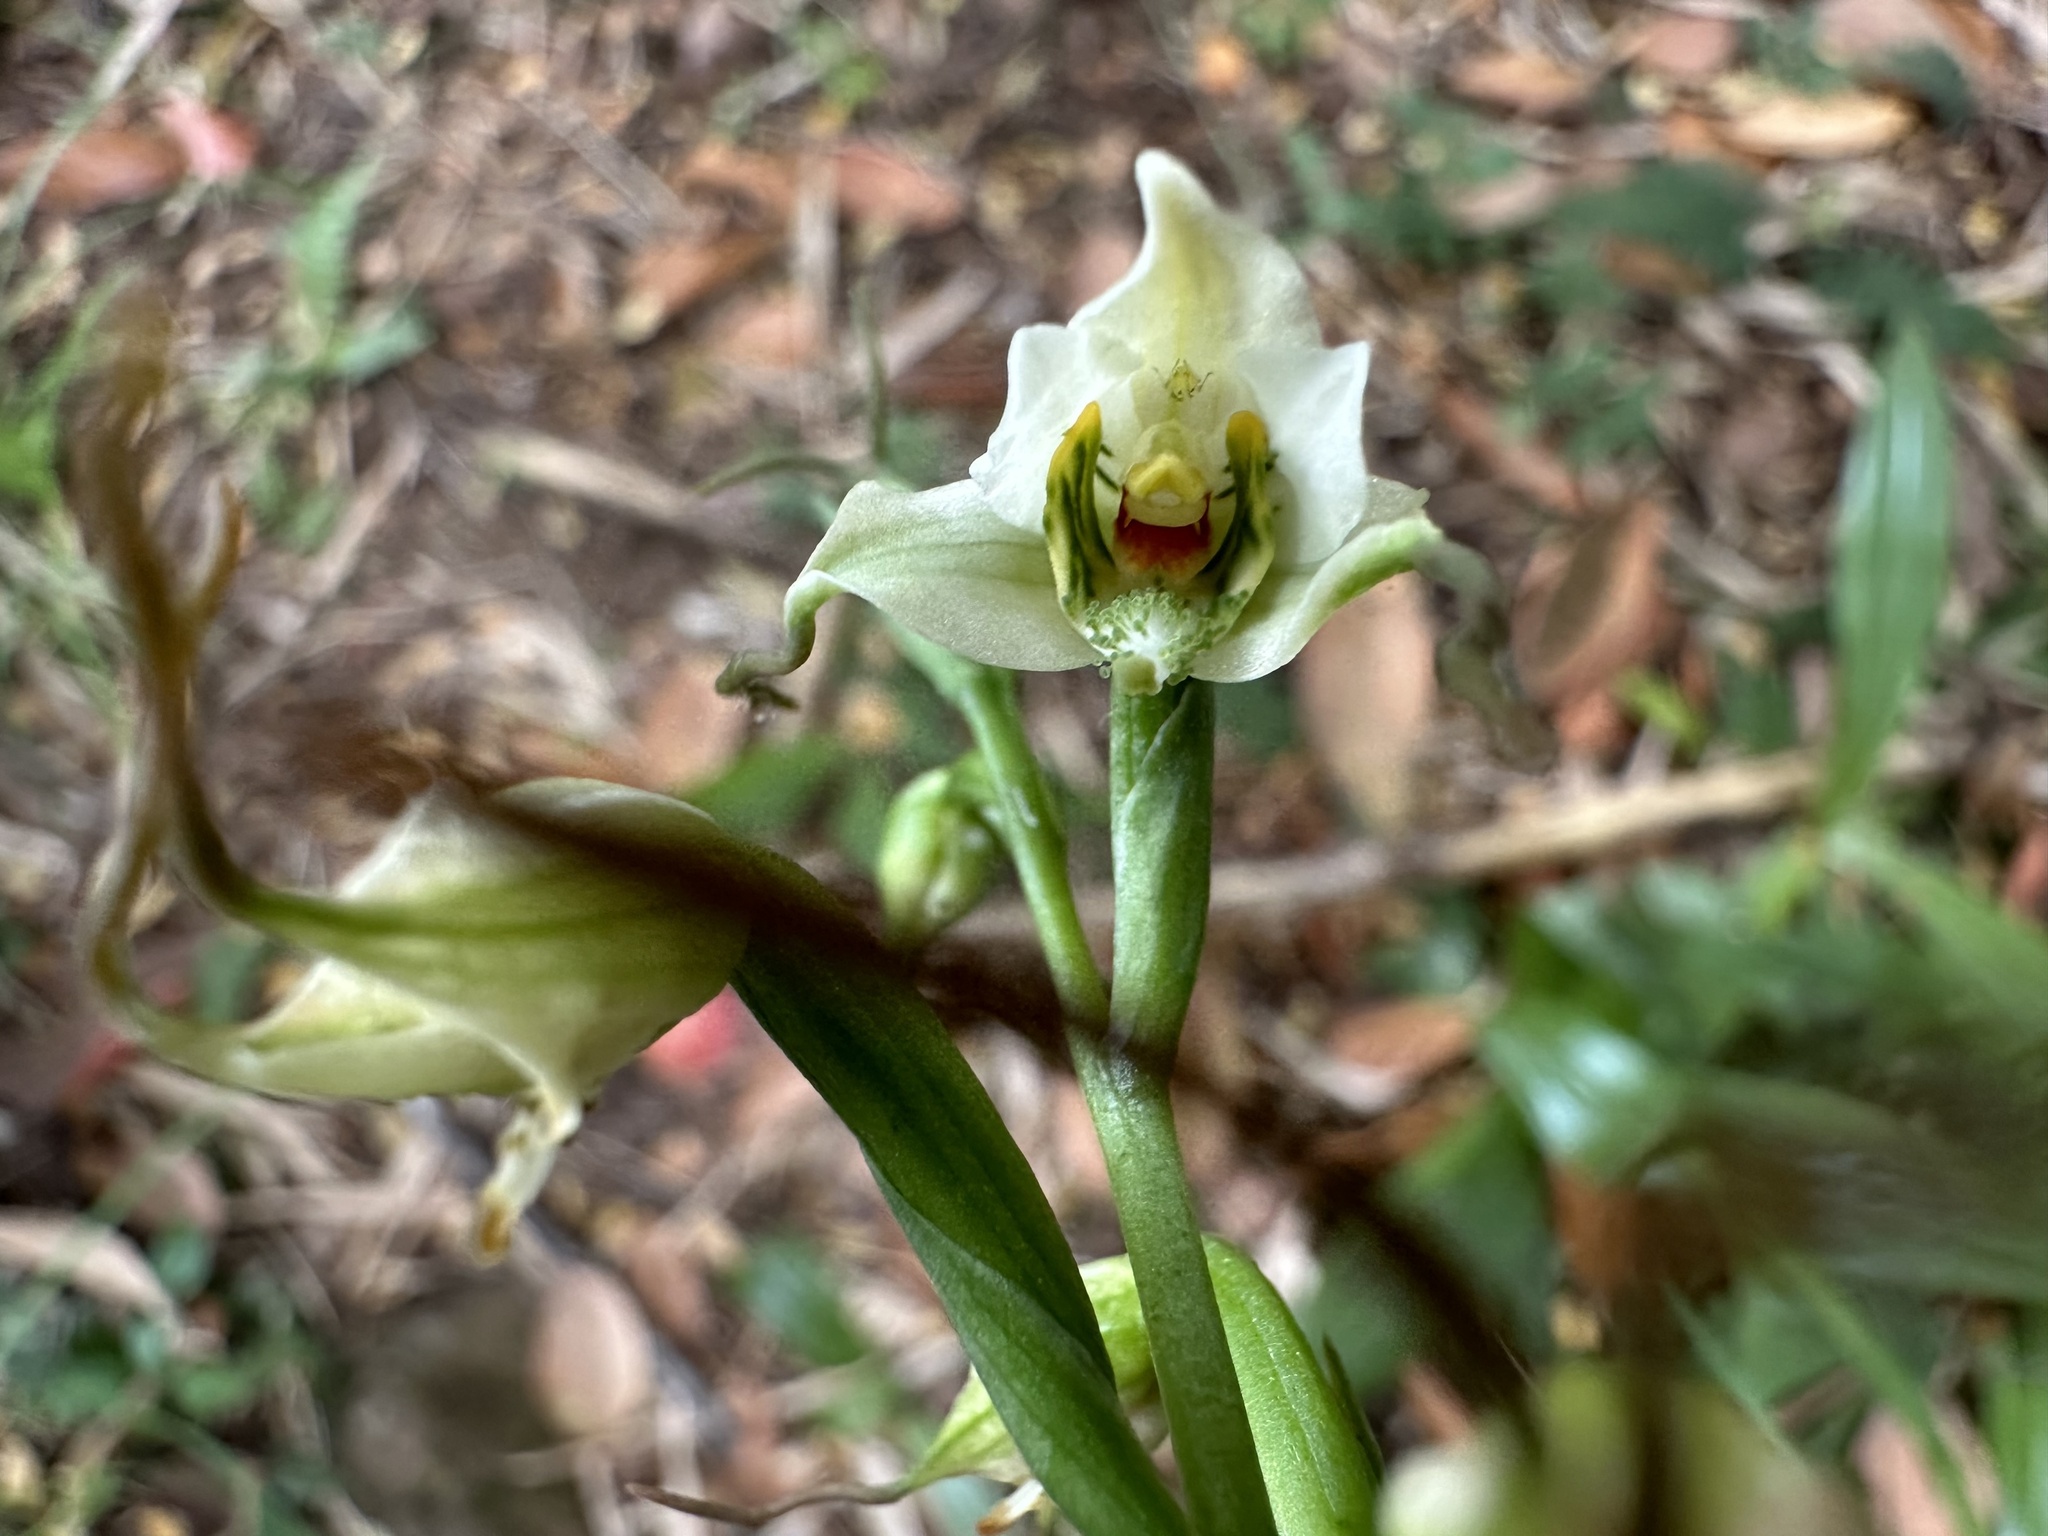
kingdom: Plantae
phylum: Tracheophyta
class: Liliopsida
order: Asparagales
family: Orchidaceae
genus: Gavilea
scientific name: Gavilea araucana
